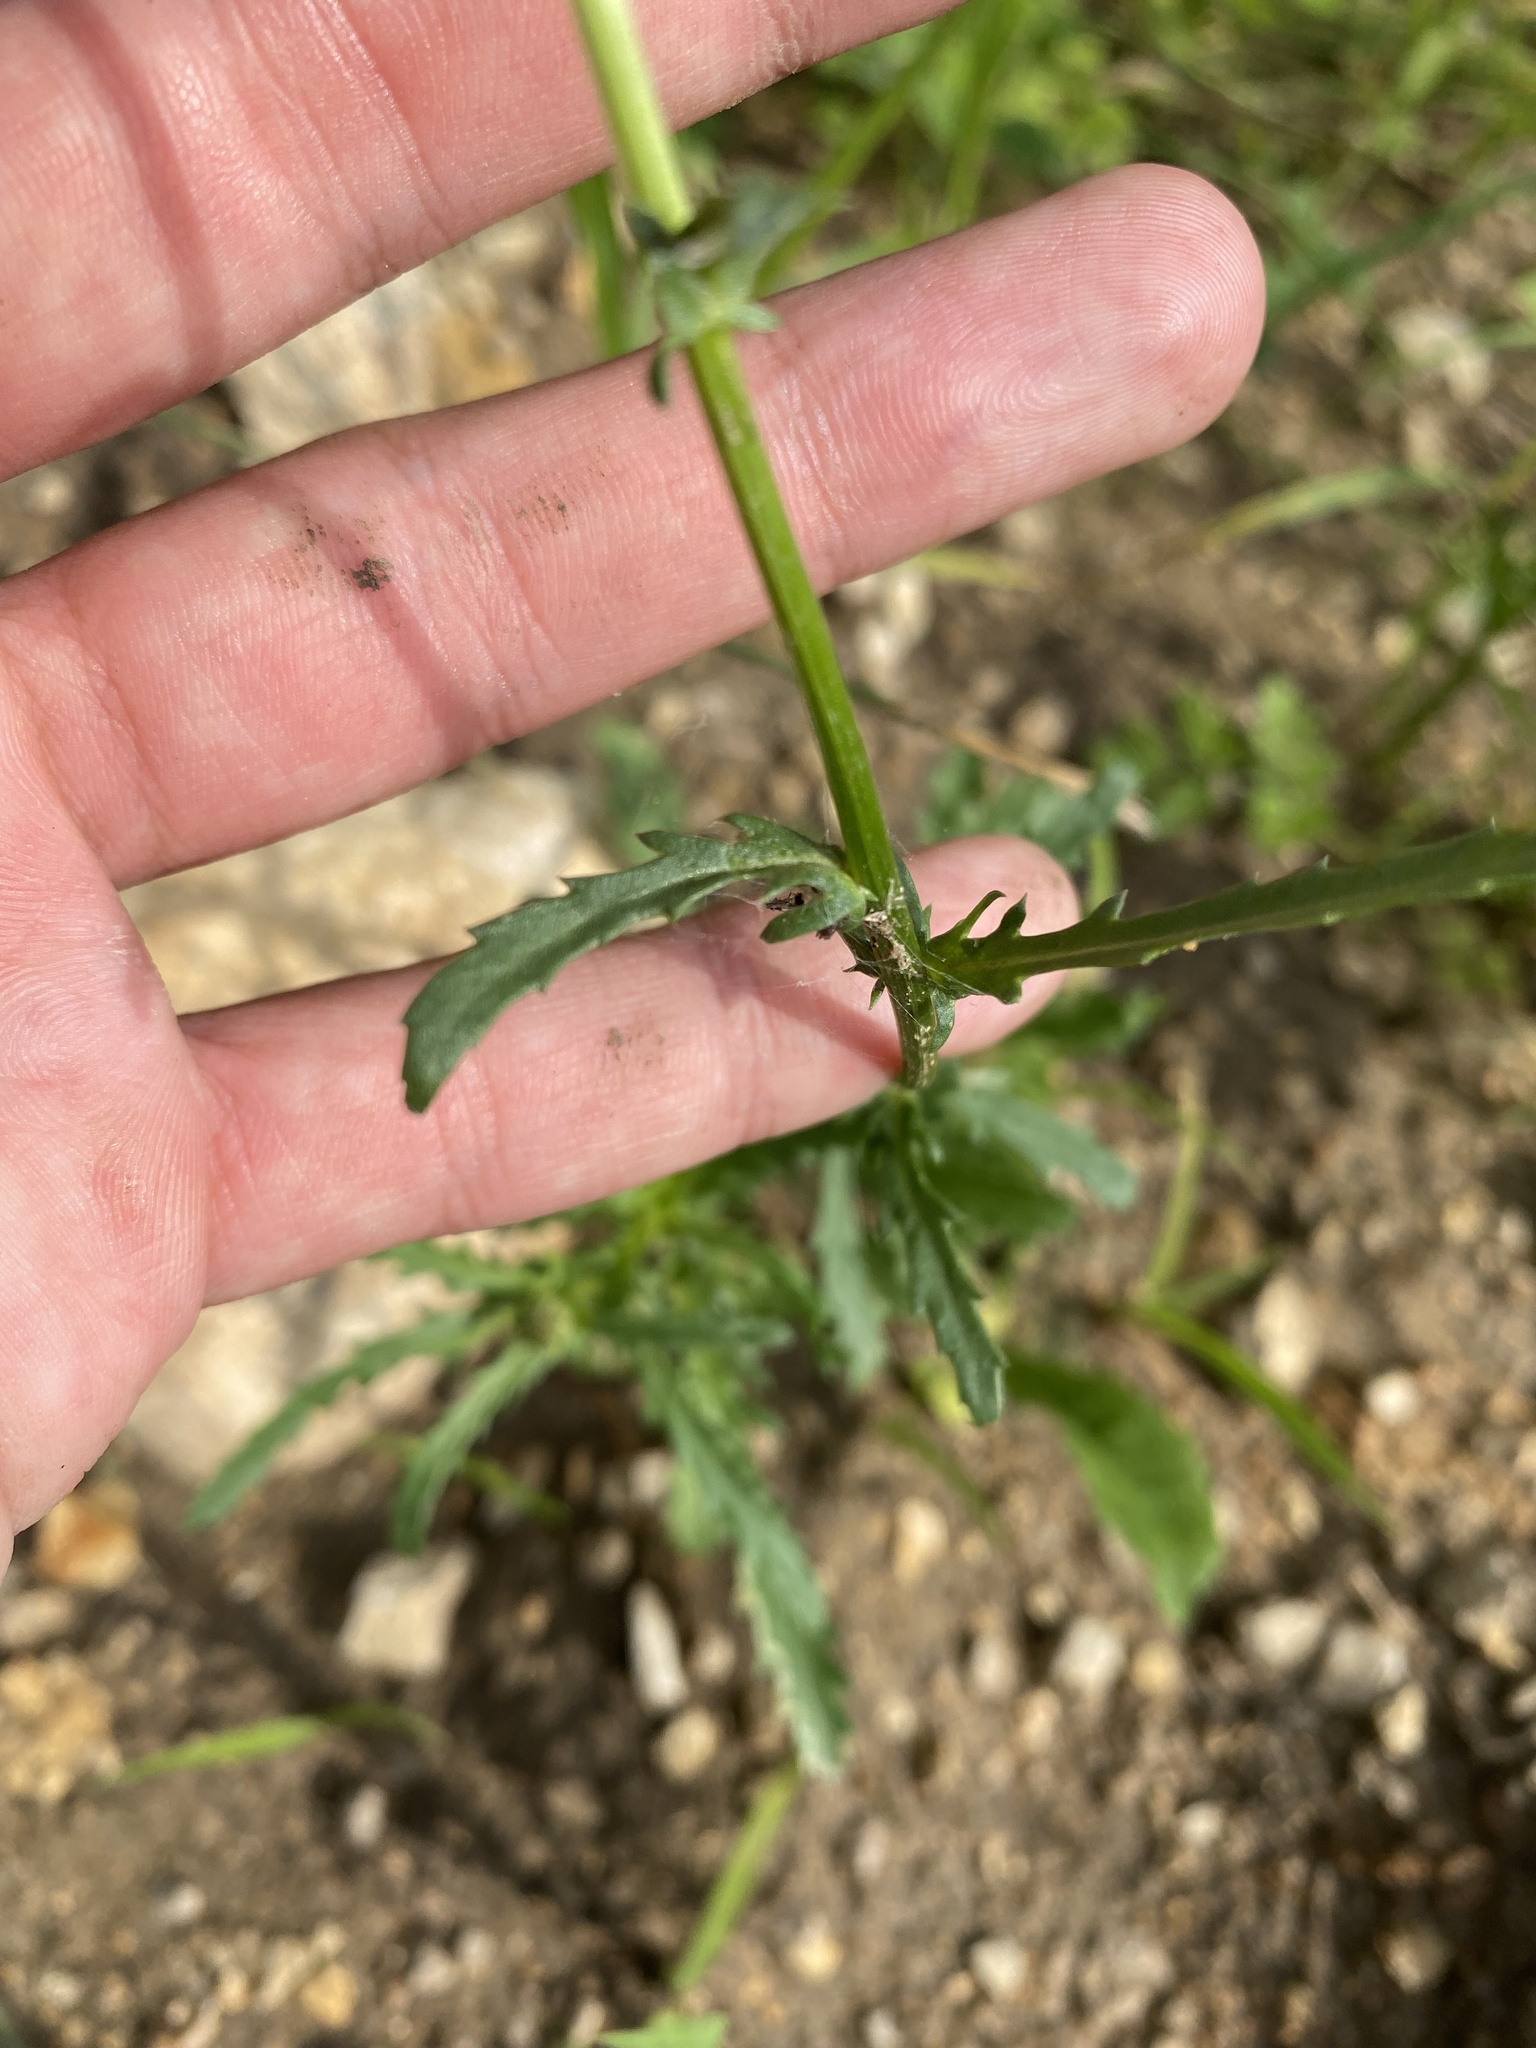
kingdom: Plantae
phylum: Tracheophyta
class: Magnoliopsida
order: Asterales
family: Asteraceae
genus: Leucanthemum
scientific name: Leucanthemum vulgare
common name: Oxeye daisy
